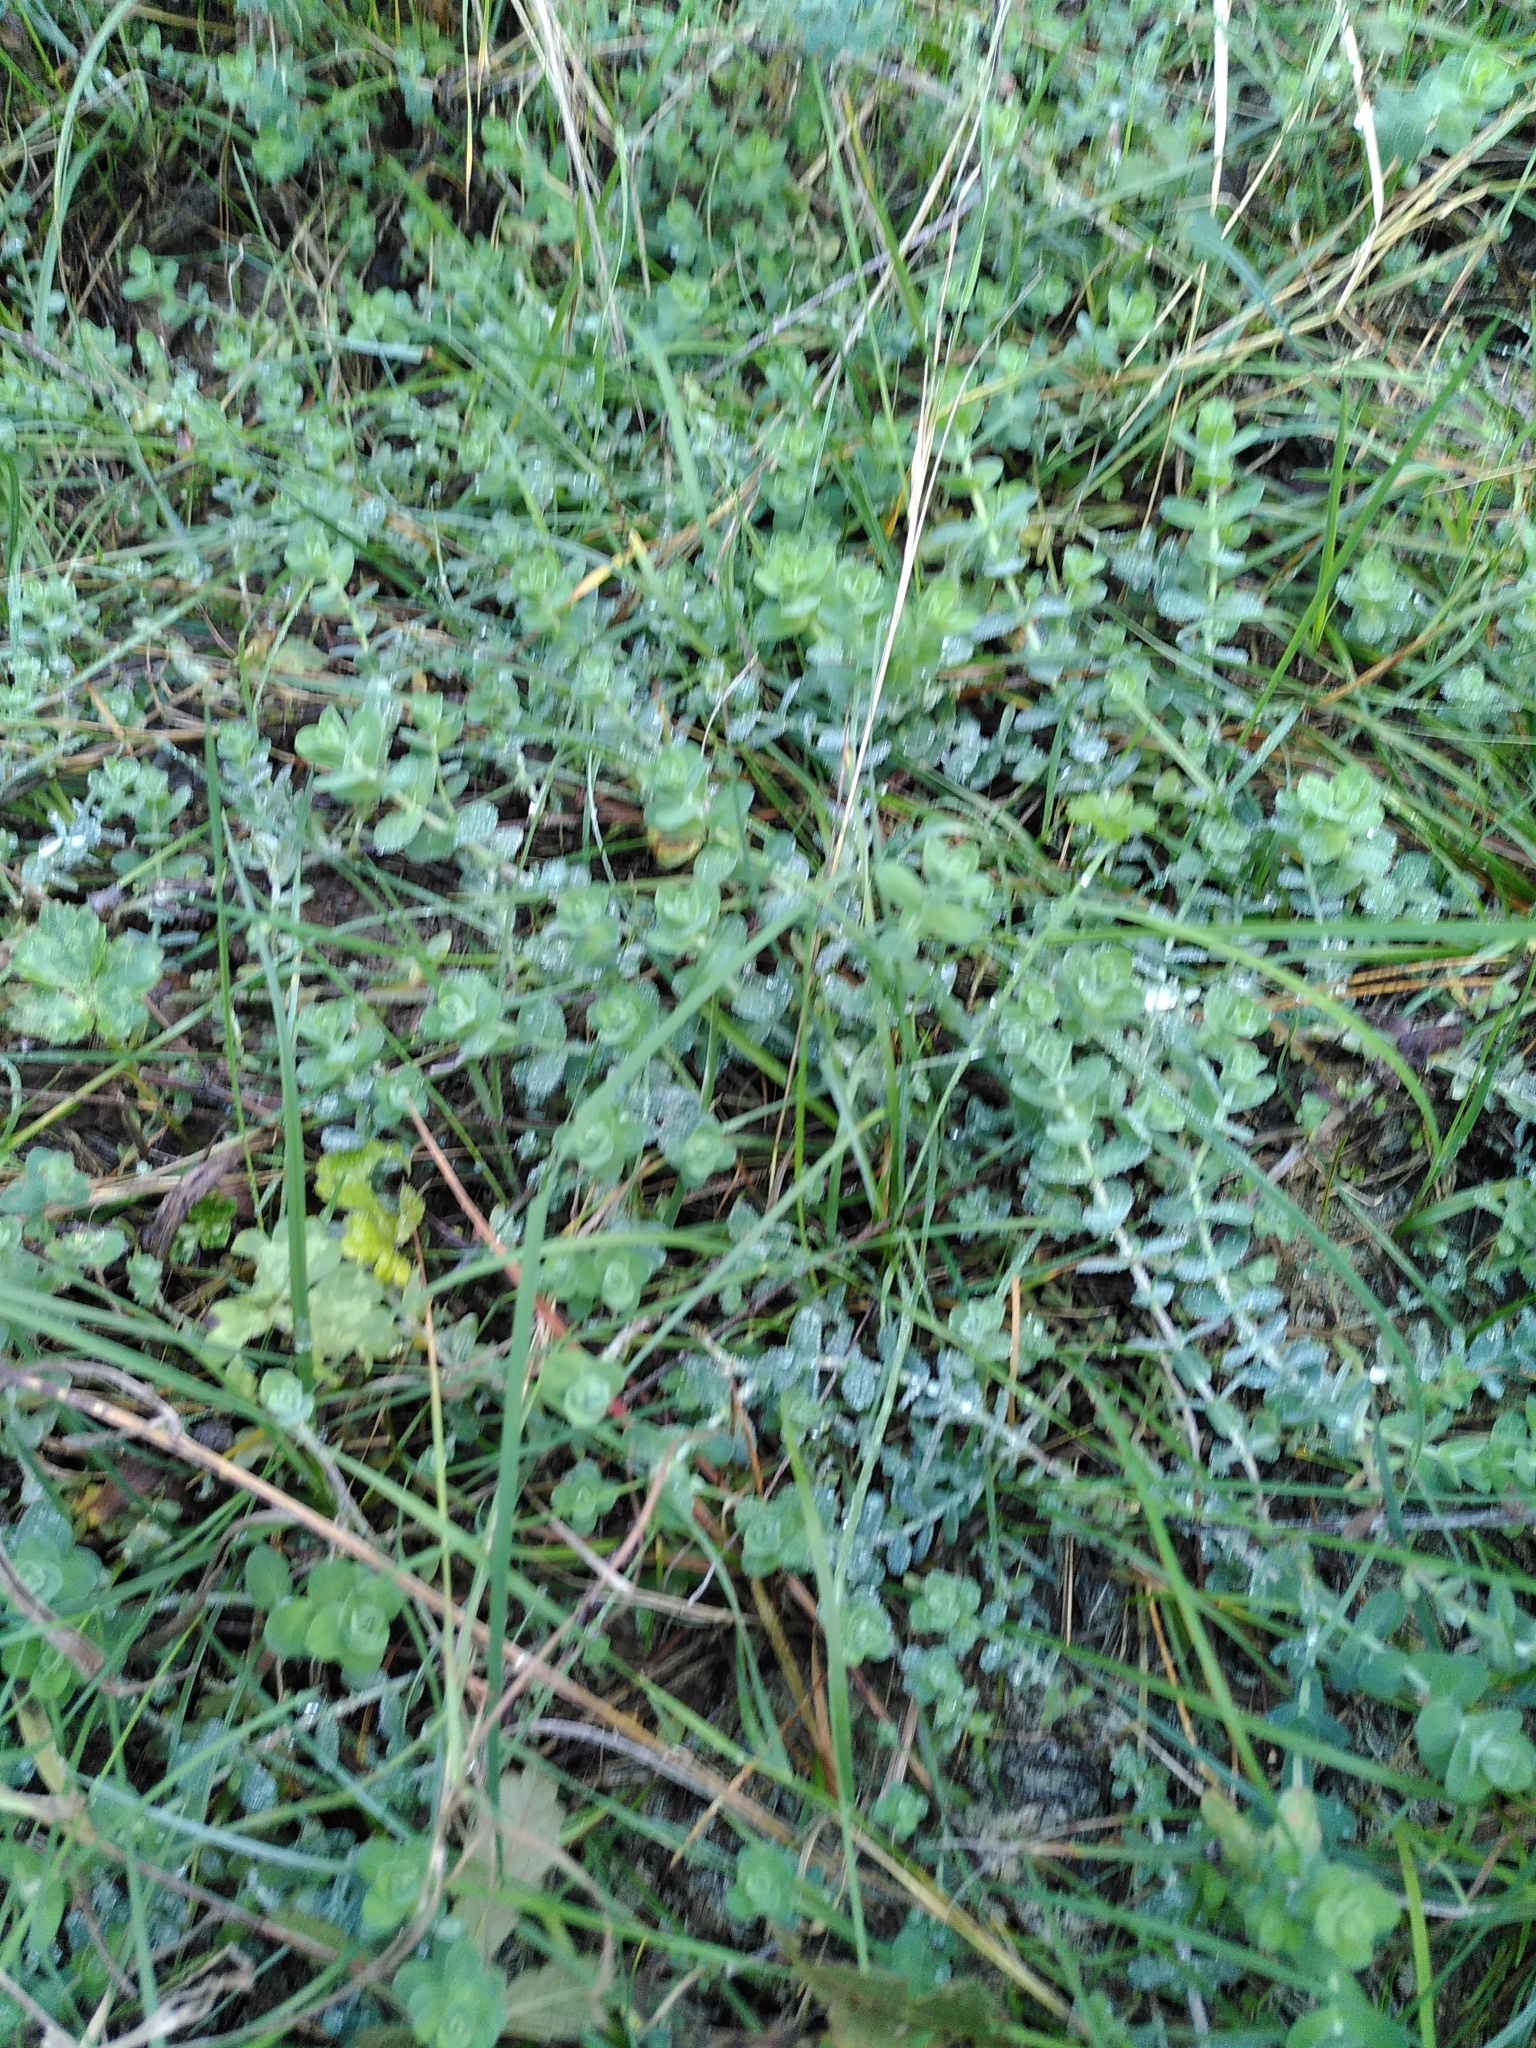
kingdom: Plantae
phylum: Tracheophyta
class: Magnoliopsida
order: Malpighiales
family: Hypericaceae
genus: Hypericum
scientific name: Hypericum tomentosum
